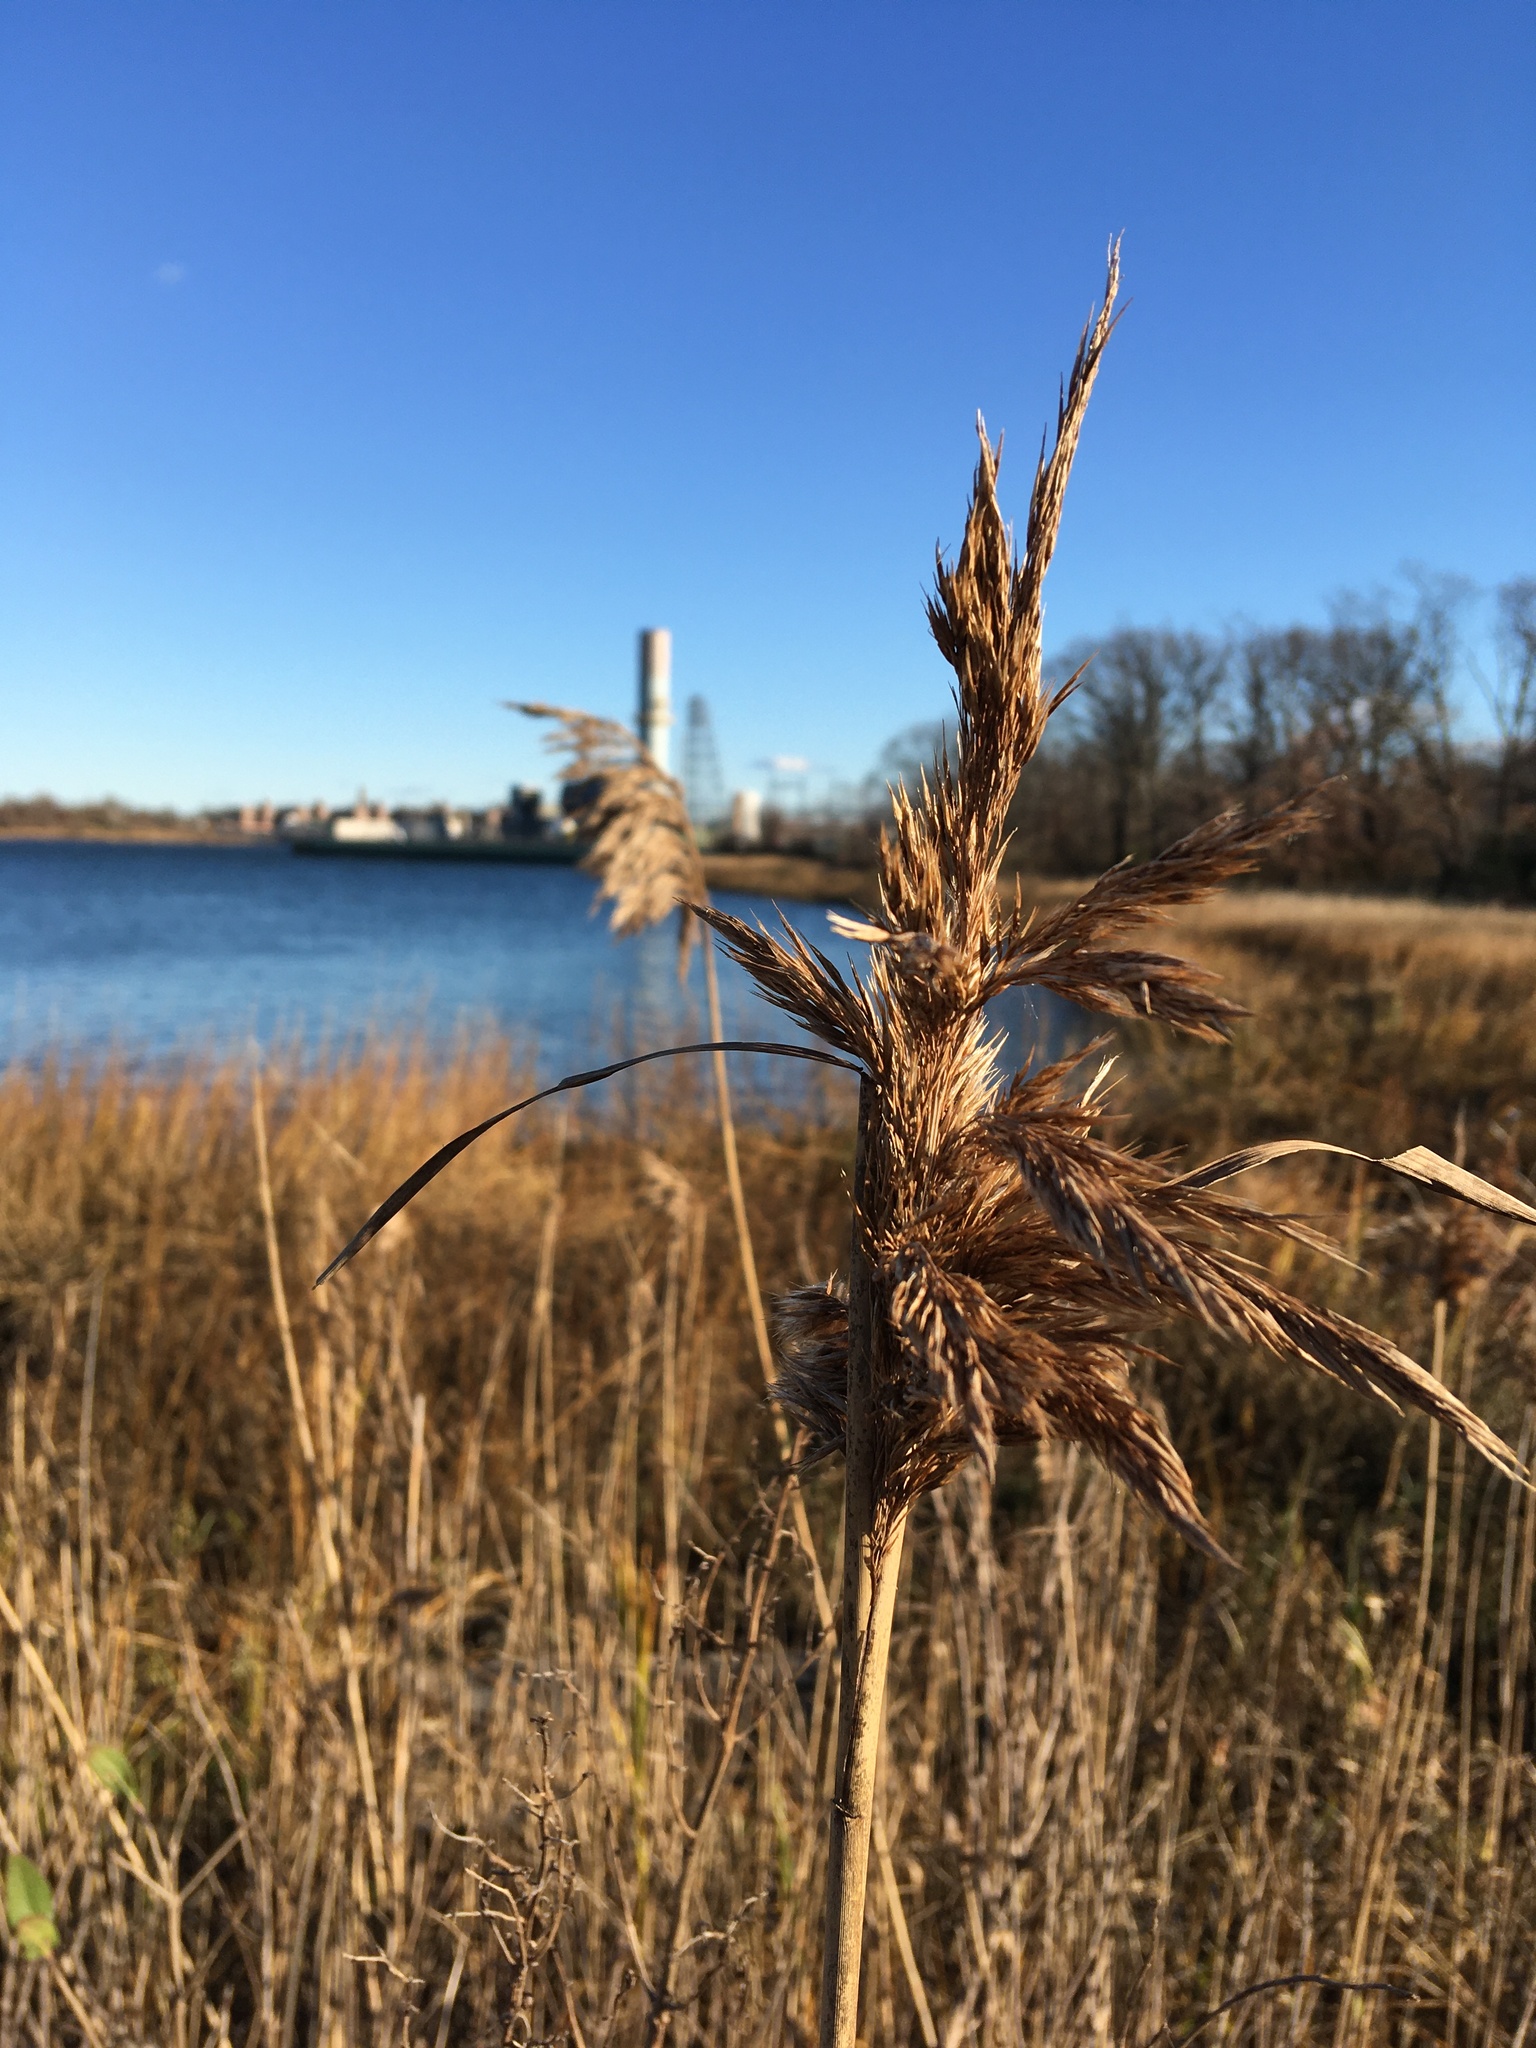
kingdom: Plantae
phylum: Tracheophyta
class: Liliopsida
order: Poales
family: Poaceae
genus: Phragmites
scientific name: Phragmites australis
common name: Common reed
